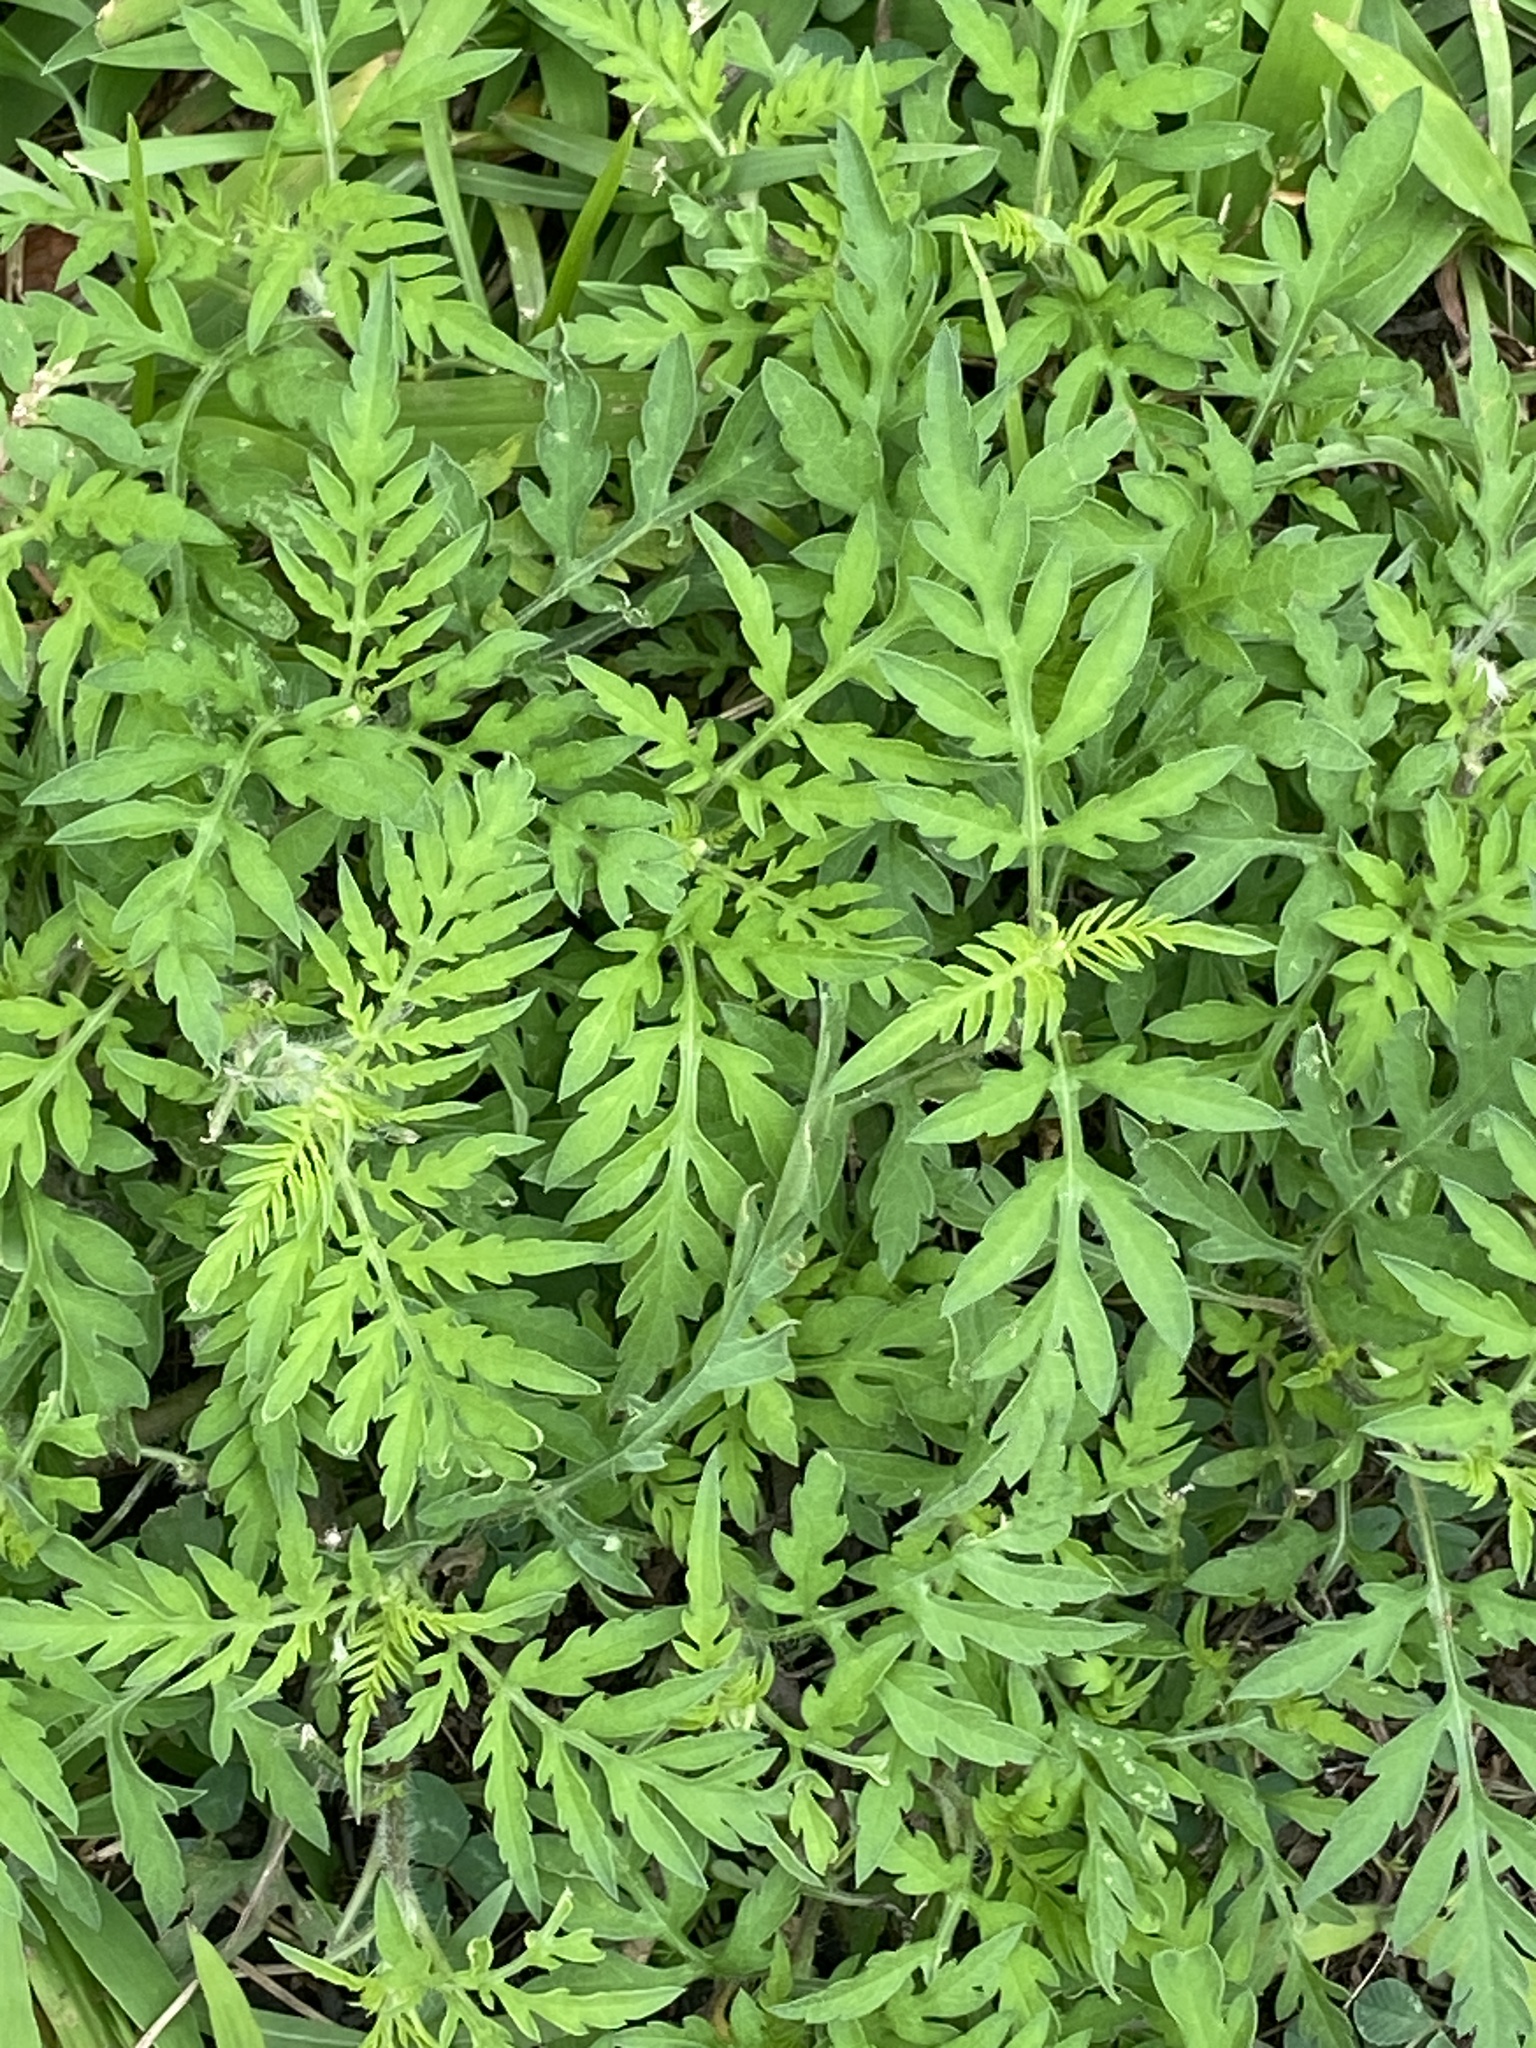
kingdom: Plantae
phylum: Tracheophyta
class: Magnoliopsida
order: Asterales
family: Asteraceae
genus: Ambrosia
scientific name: Ambrosia artemisiifolia
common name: Annual ragweed
